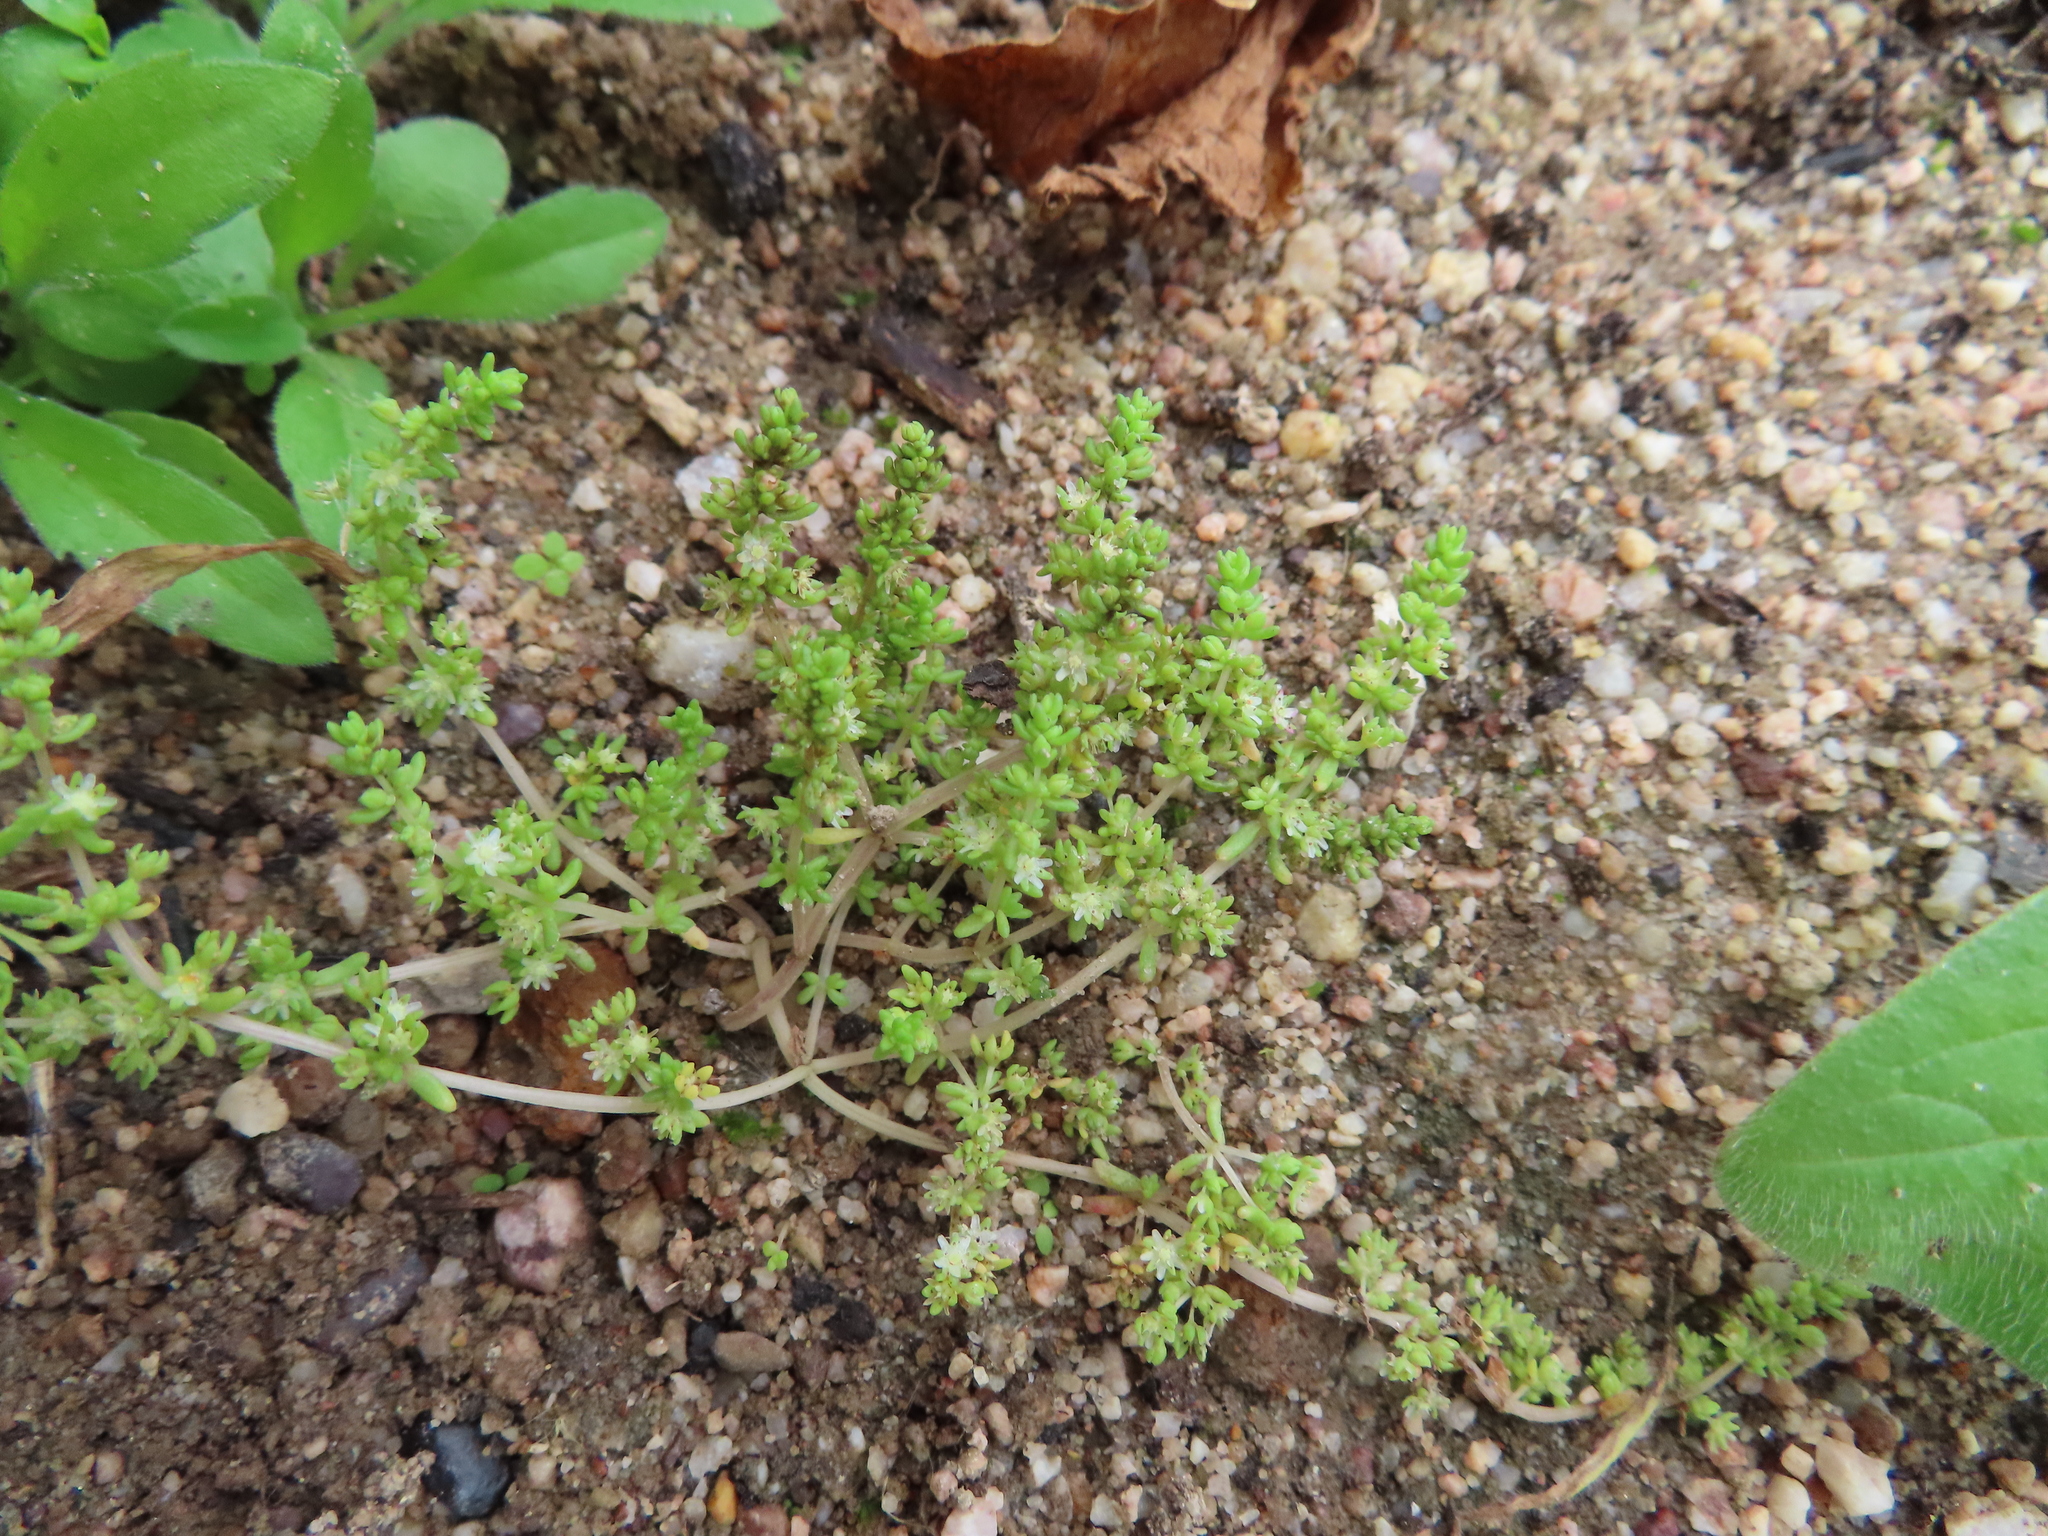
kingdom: Plantae
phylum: Tracheophyta
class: Magnoliopsida
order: Saxifragales
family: Crassulaceae
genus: Crassula
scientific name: Crassula thunbergiana
